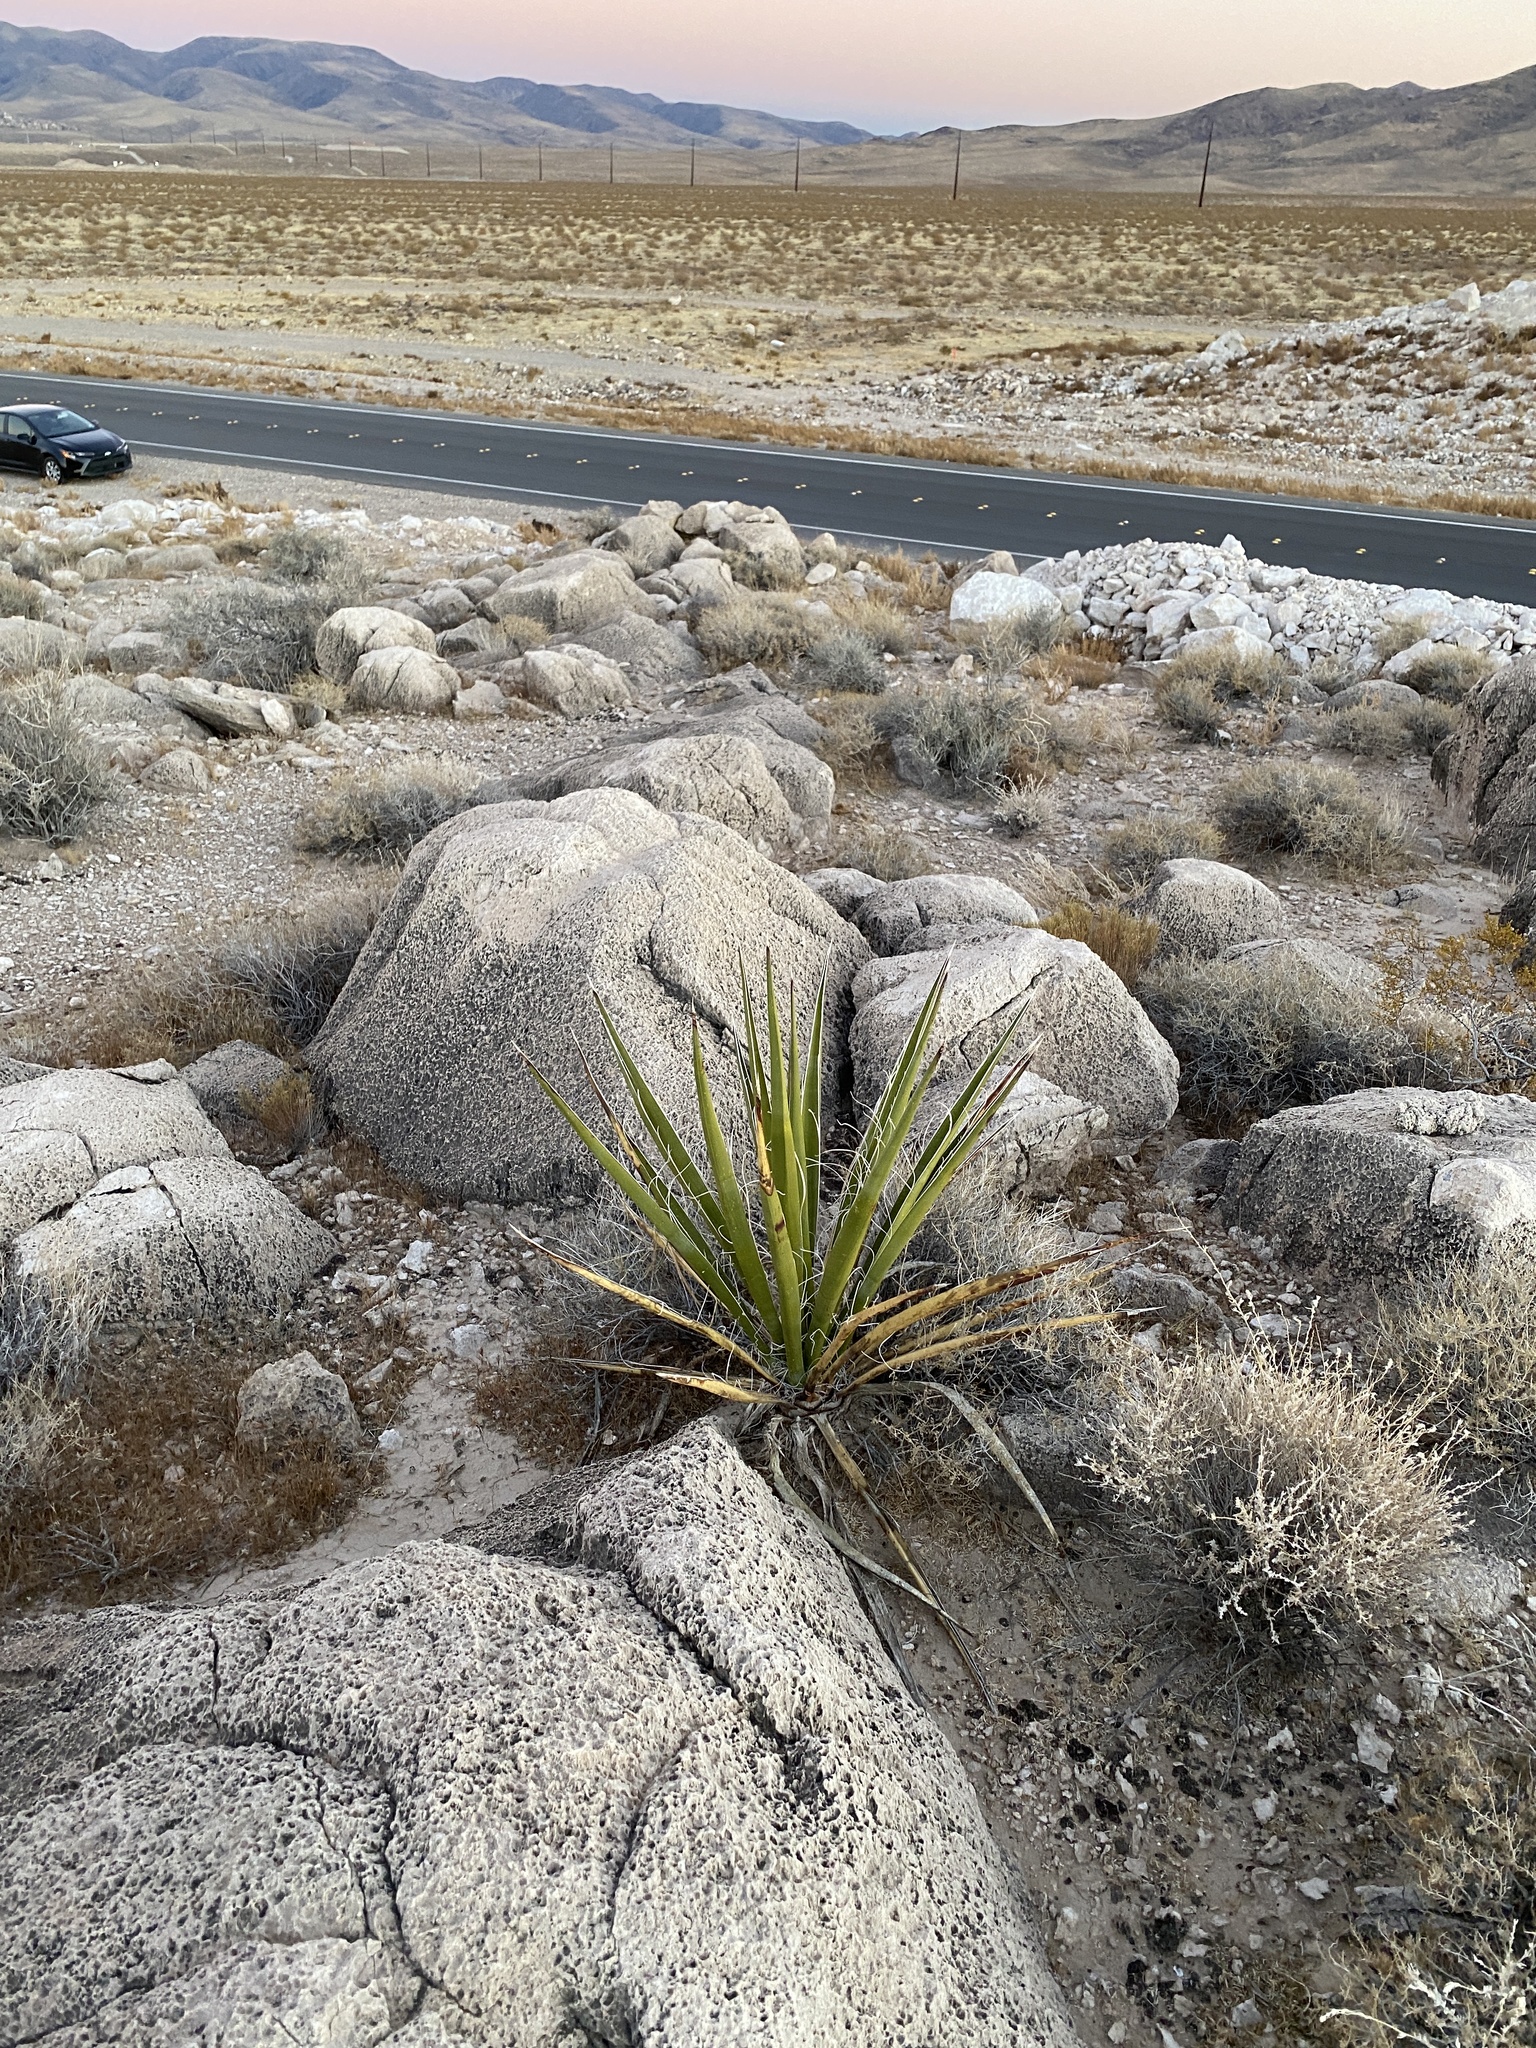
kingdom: Plantae
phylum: Tracheophyta
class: Liliopsida
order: Asparagales
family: Asparagaceae
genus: Yucca
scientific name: Yucca schidigera
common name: Mojave yucca
